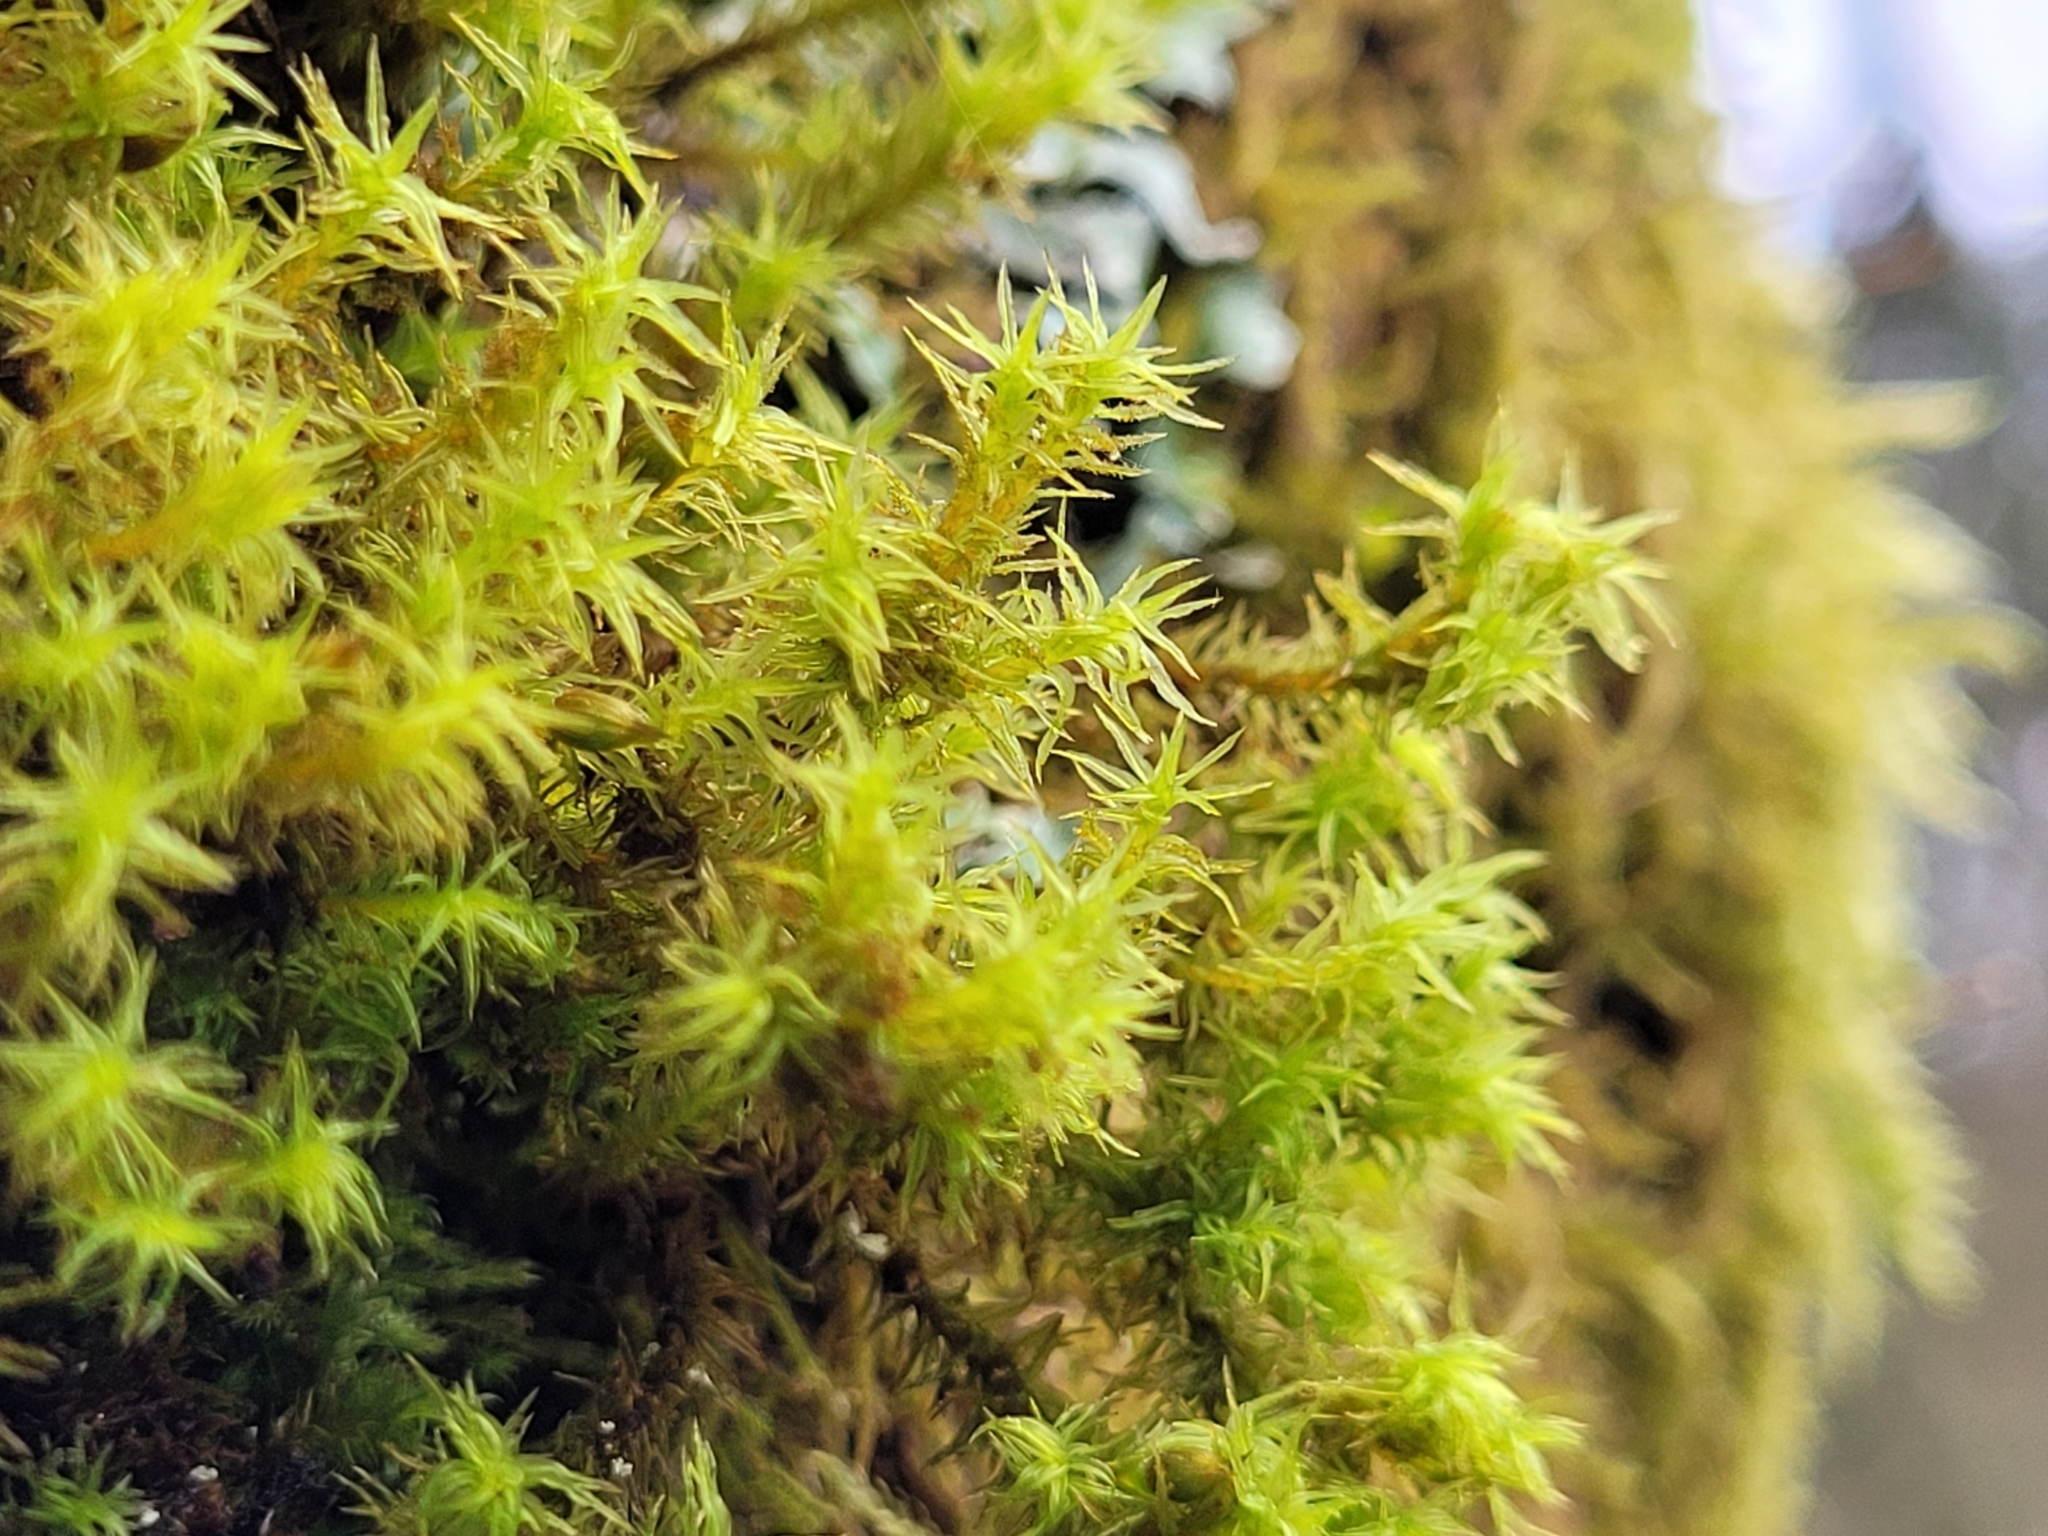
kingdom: Plantae
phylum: Bryophyta
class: Bryopsida
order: Orthotrichales
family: Orthotrichaceae
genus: Pulvigera
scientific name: Pulvigera lyellii
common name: Lyell's bristle-moss
